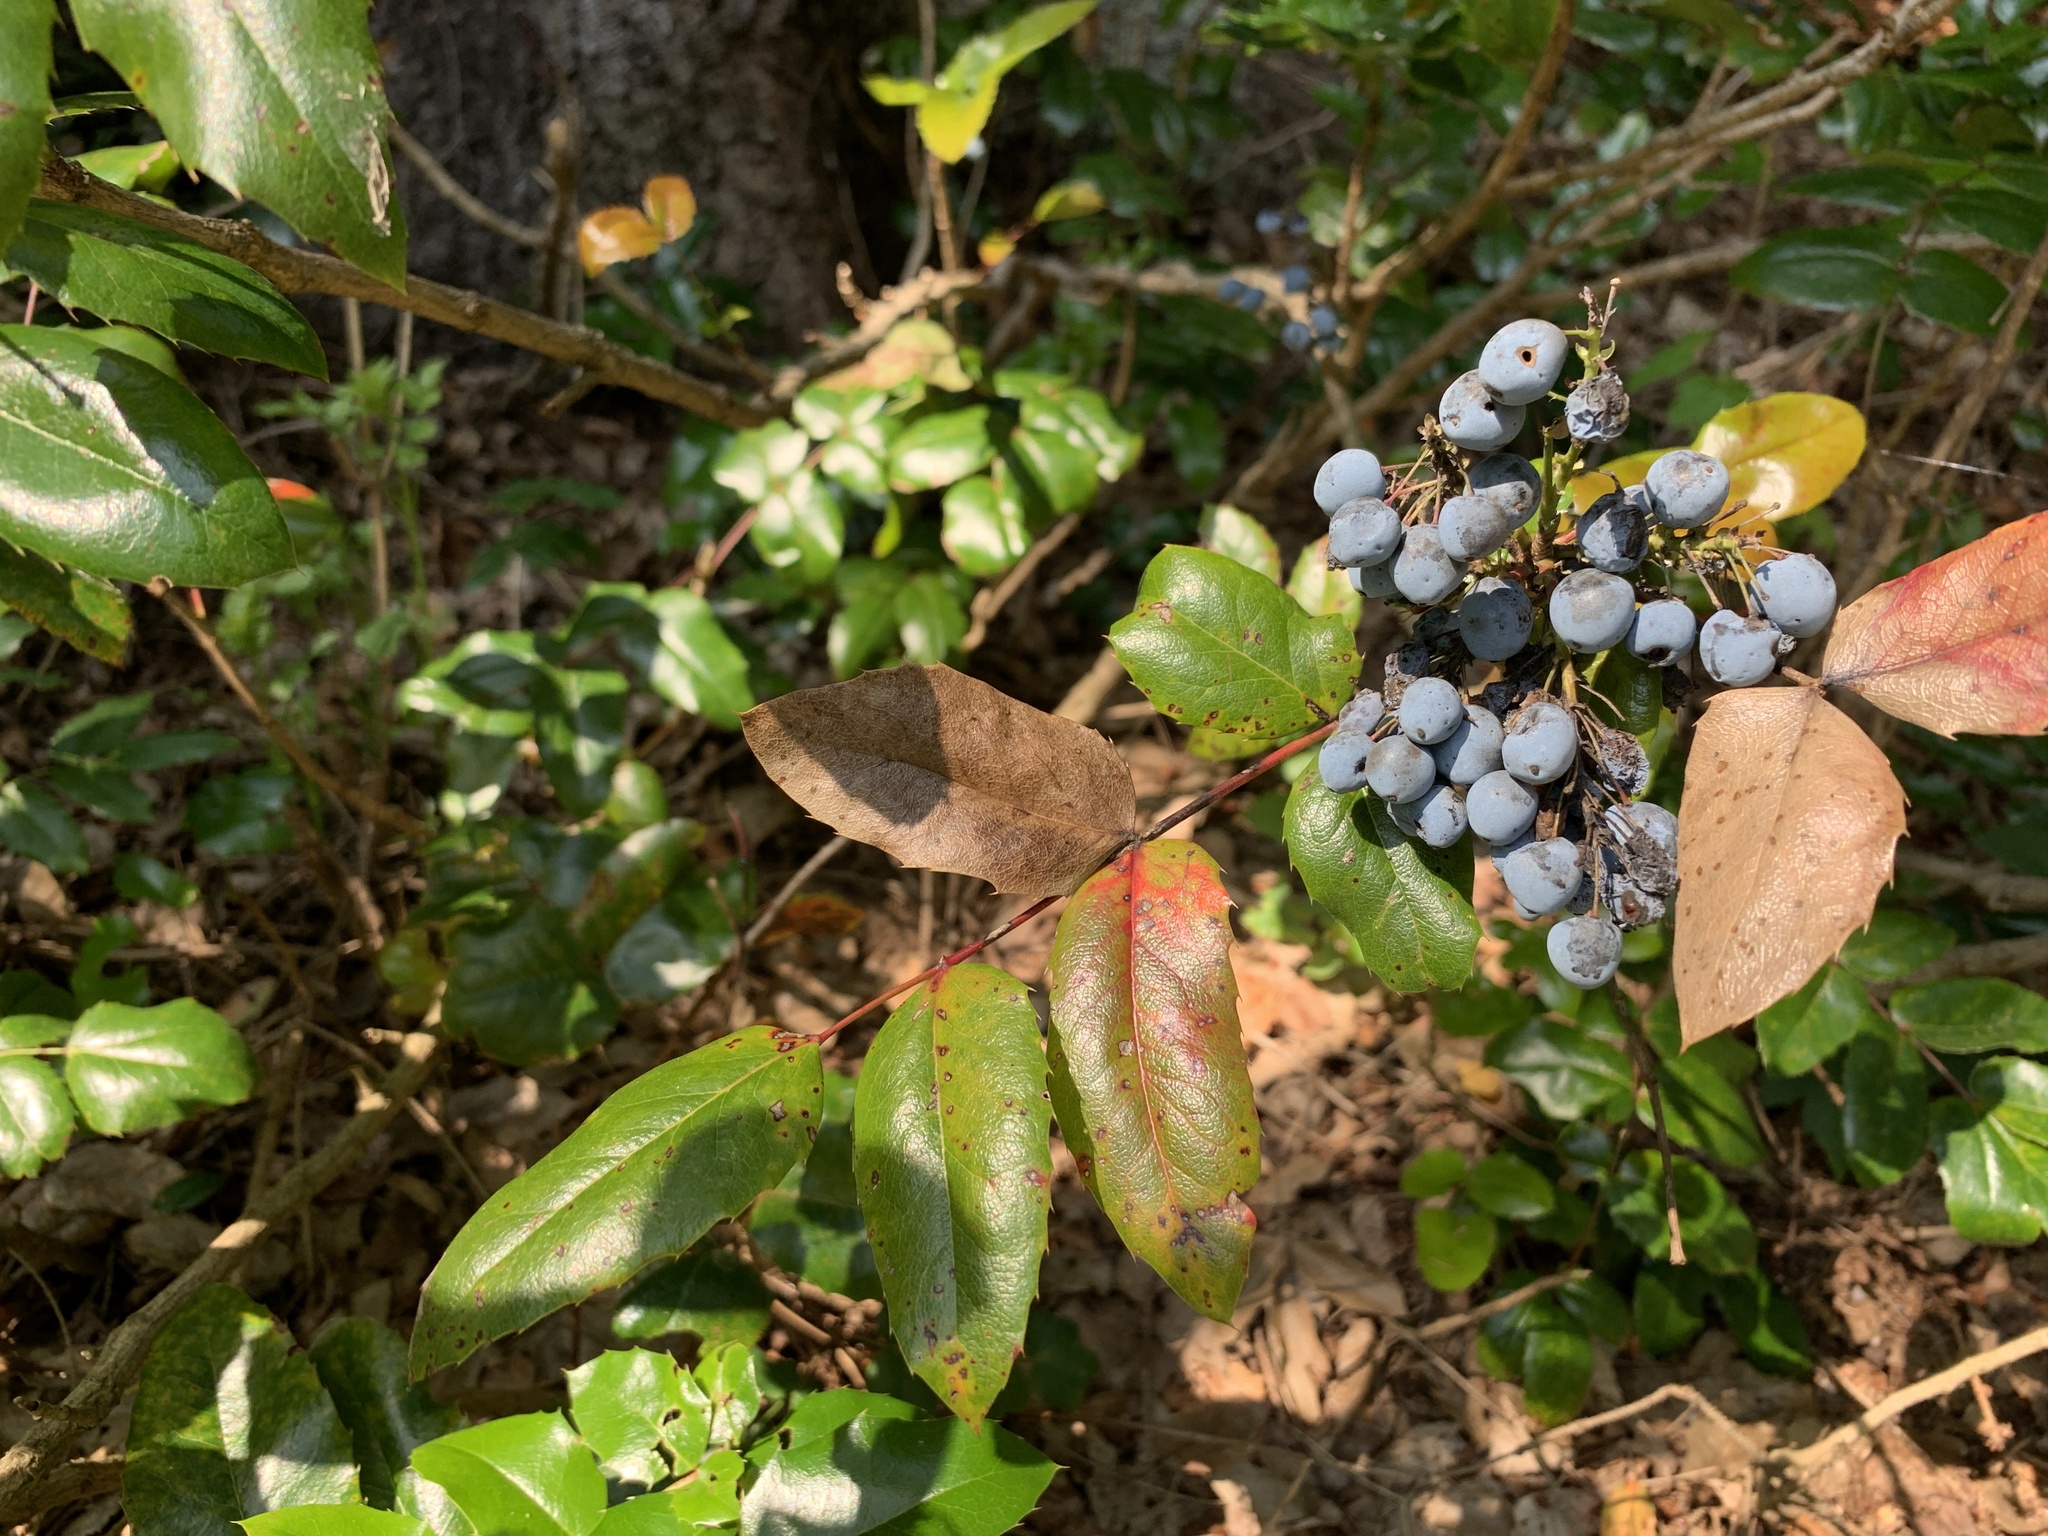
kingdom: Plantae
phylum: Tracheophyta
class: Magnoliopsida
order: Ranunculales
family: Berberidaceae
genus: Mahonia
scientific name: Mahonia aquifolium
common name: Oregon-grape
